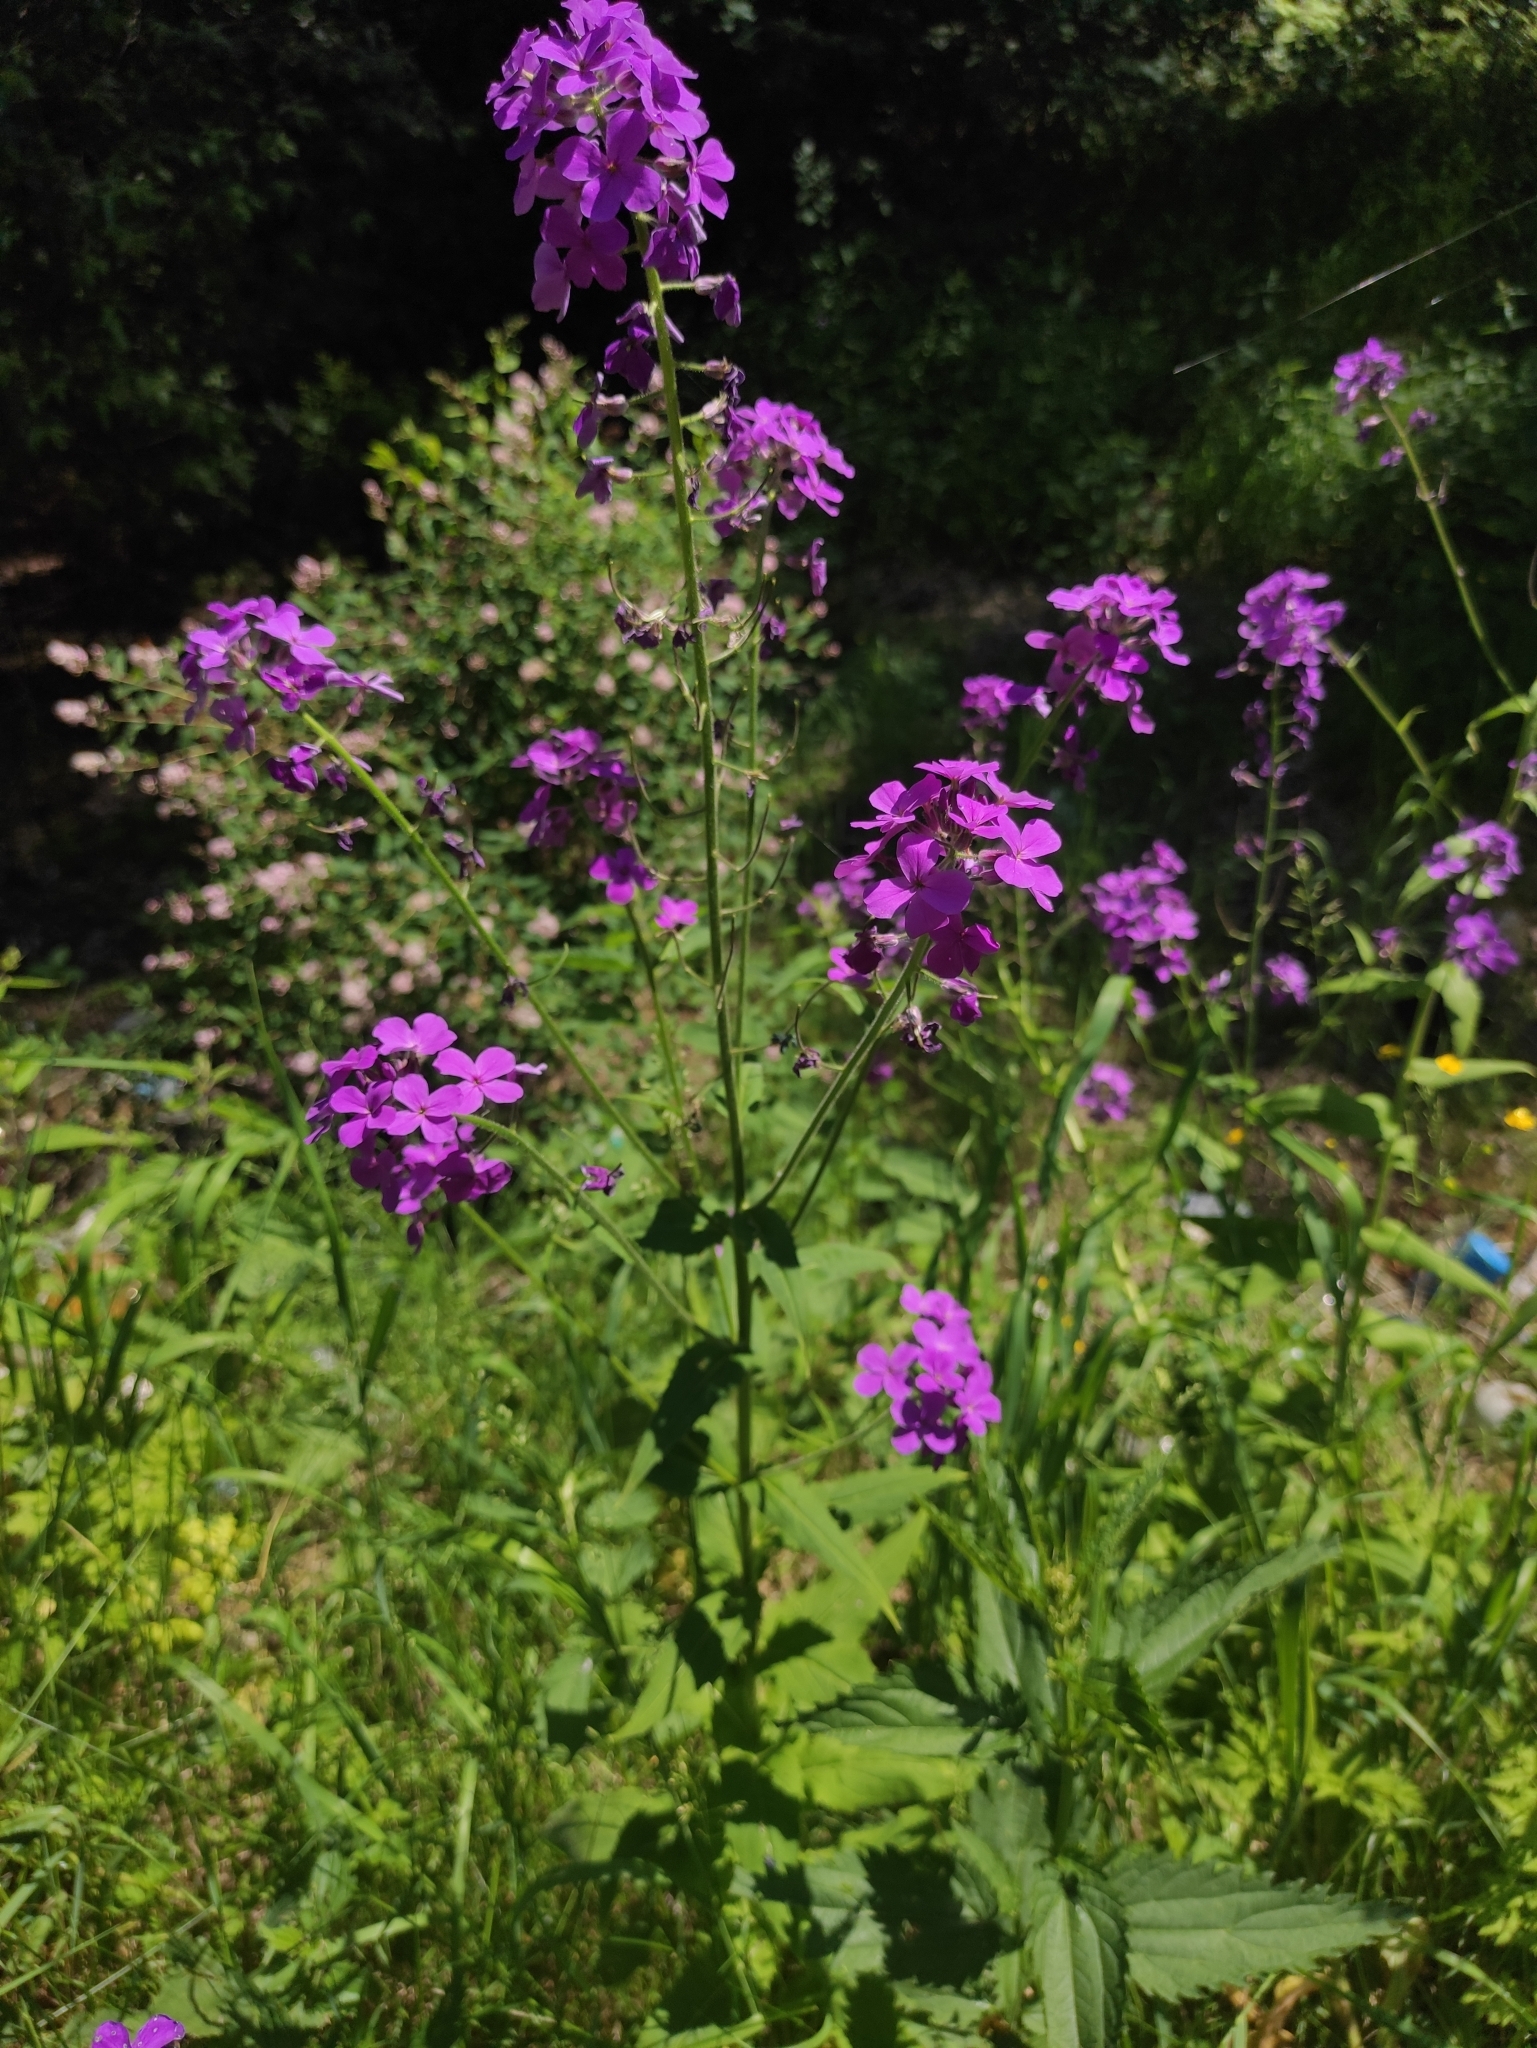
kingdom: Plantae
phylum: Tracheophyta
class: Magnoliopsida
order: Brassicales
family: Brassicaceae
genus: Hesperis
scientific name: Hesperis sibirica
